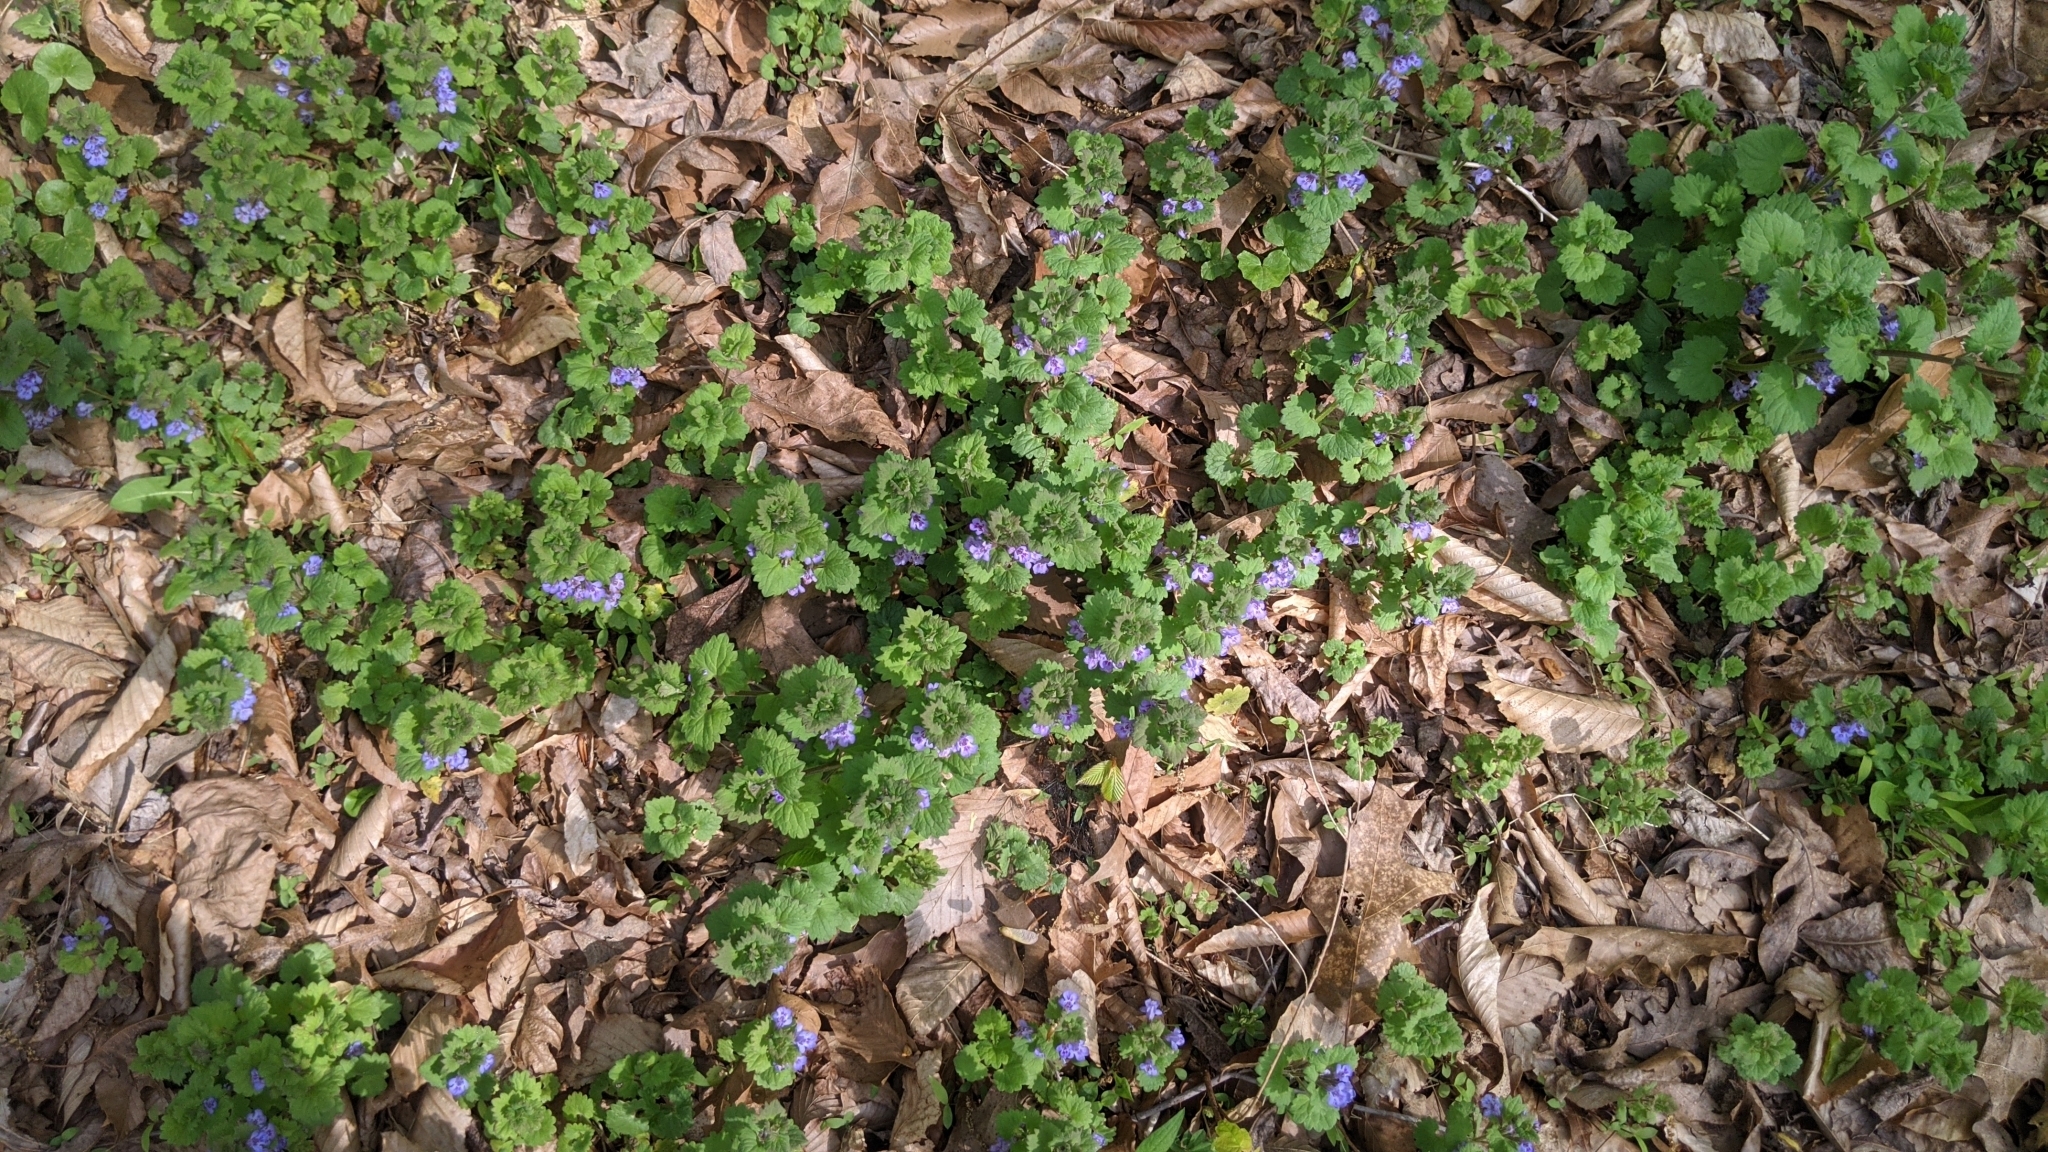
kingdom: Plantae
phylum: Tracheophyta
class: Magnoliopsida
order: Lamiales
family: Lamiaceae
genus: Glechoma
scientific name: Glechoma hederacea
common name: Ground ivy
